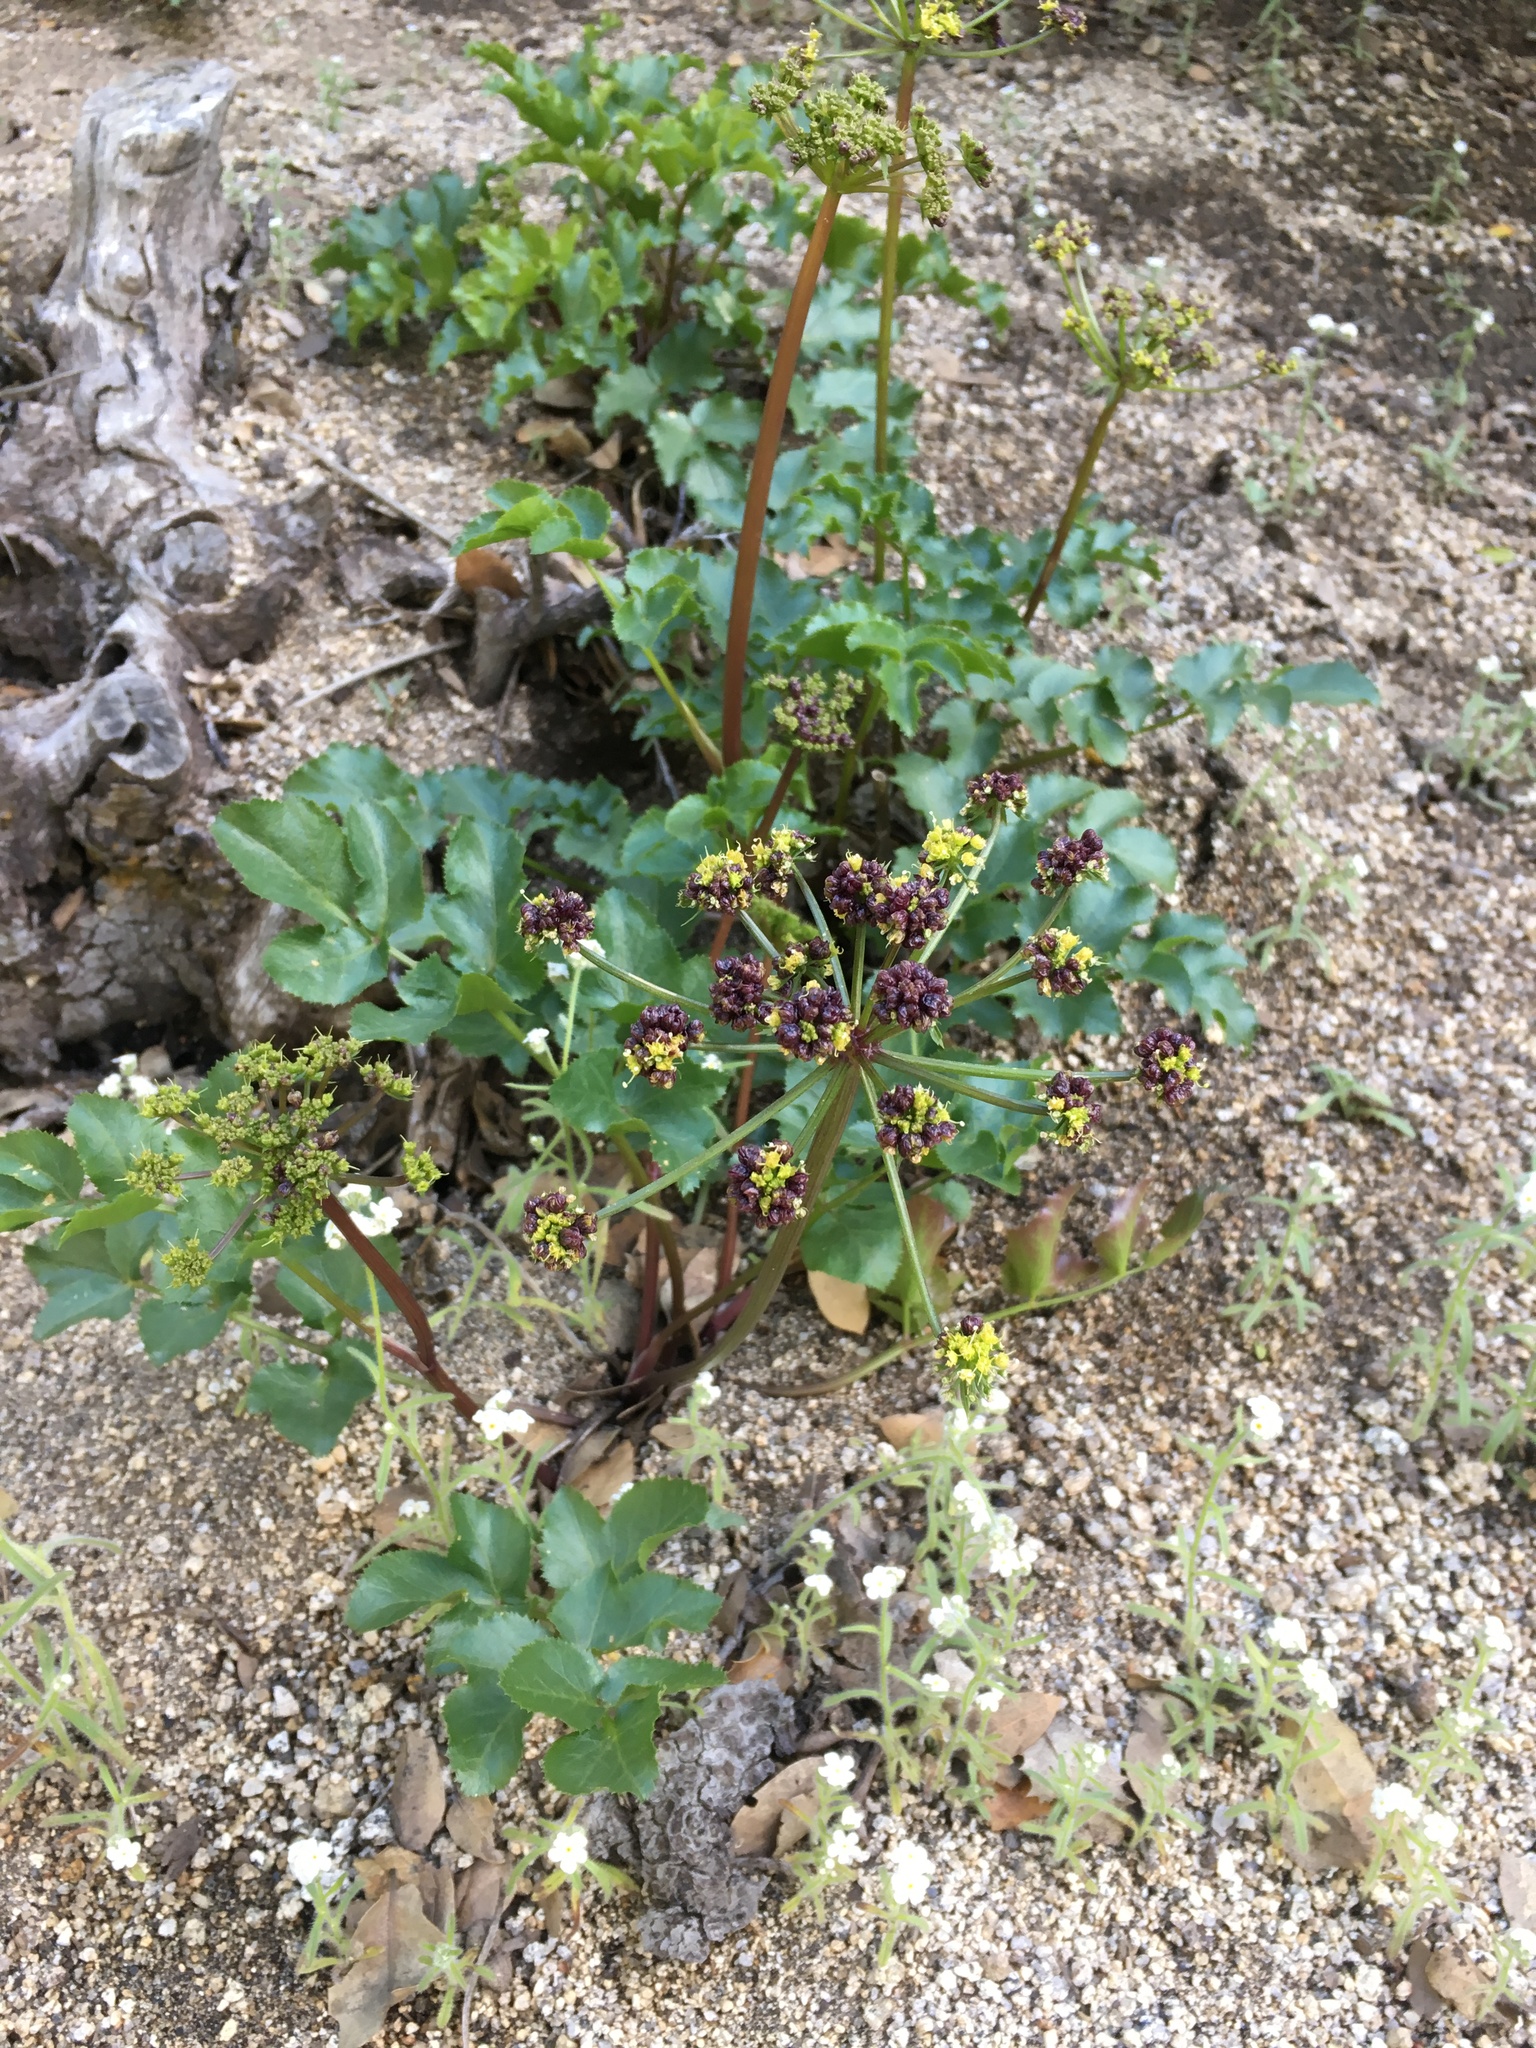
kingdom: Plantae
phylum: Tracheophyta
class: Magnoliopsida
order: Apiales
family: Apiaceae
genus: Tauschia
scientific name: Tauschia arguta
